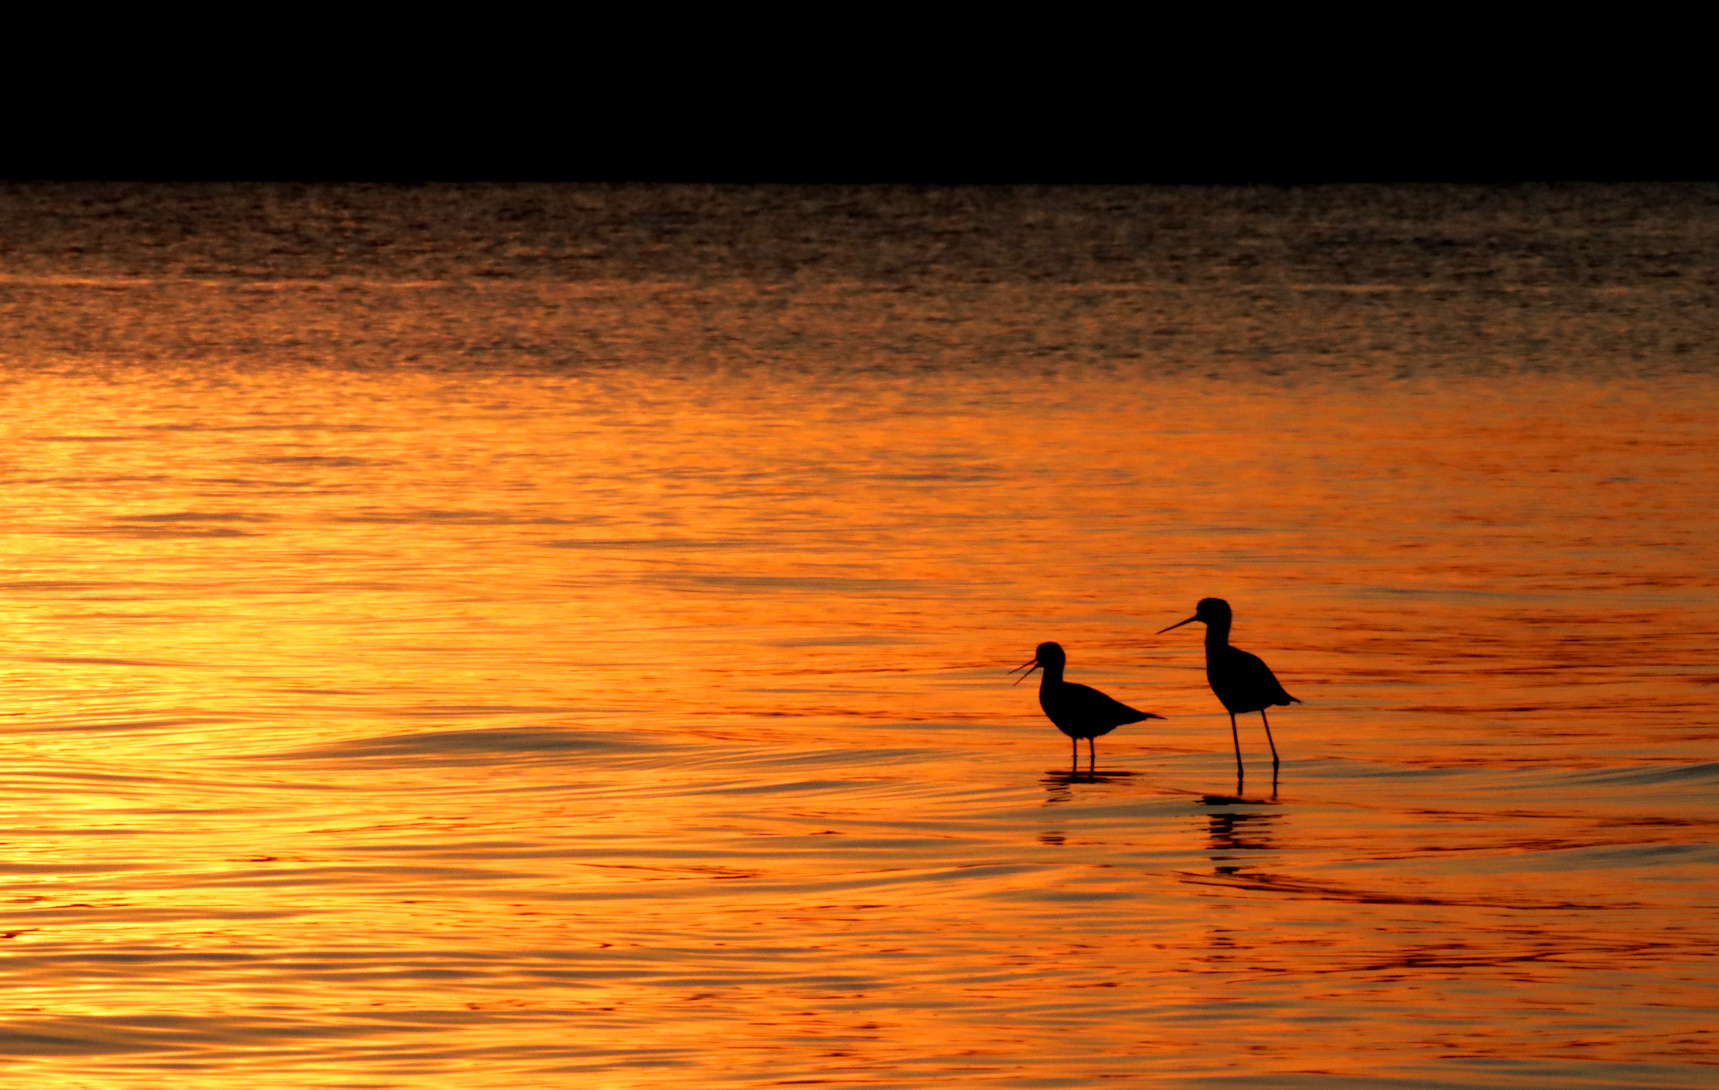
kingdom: Animalia
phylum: Chordata
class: Aves
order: Charadriiformes
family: Recurvirostridae
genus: Himantopus
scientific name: Himantopus himantopus
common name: Black-winged stilt
